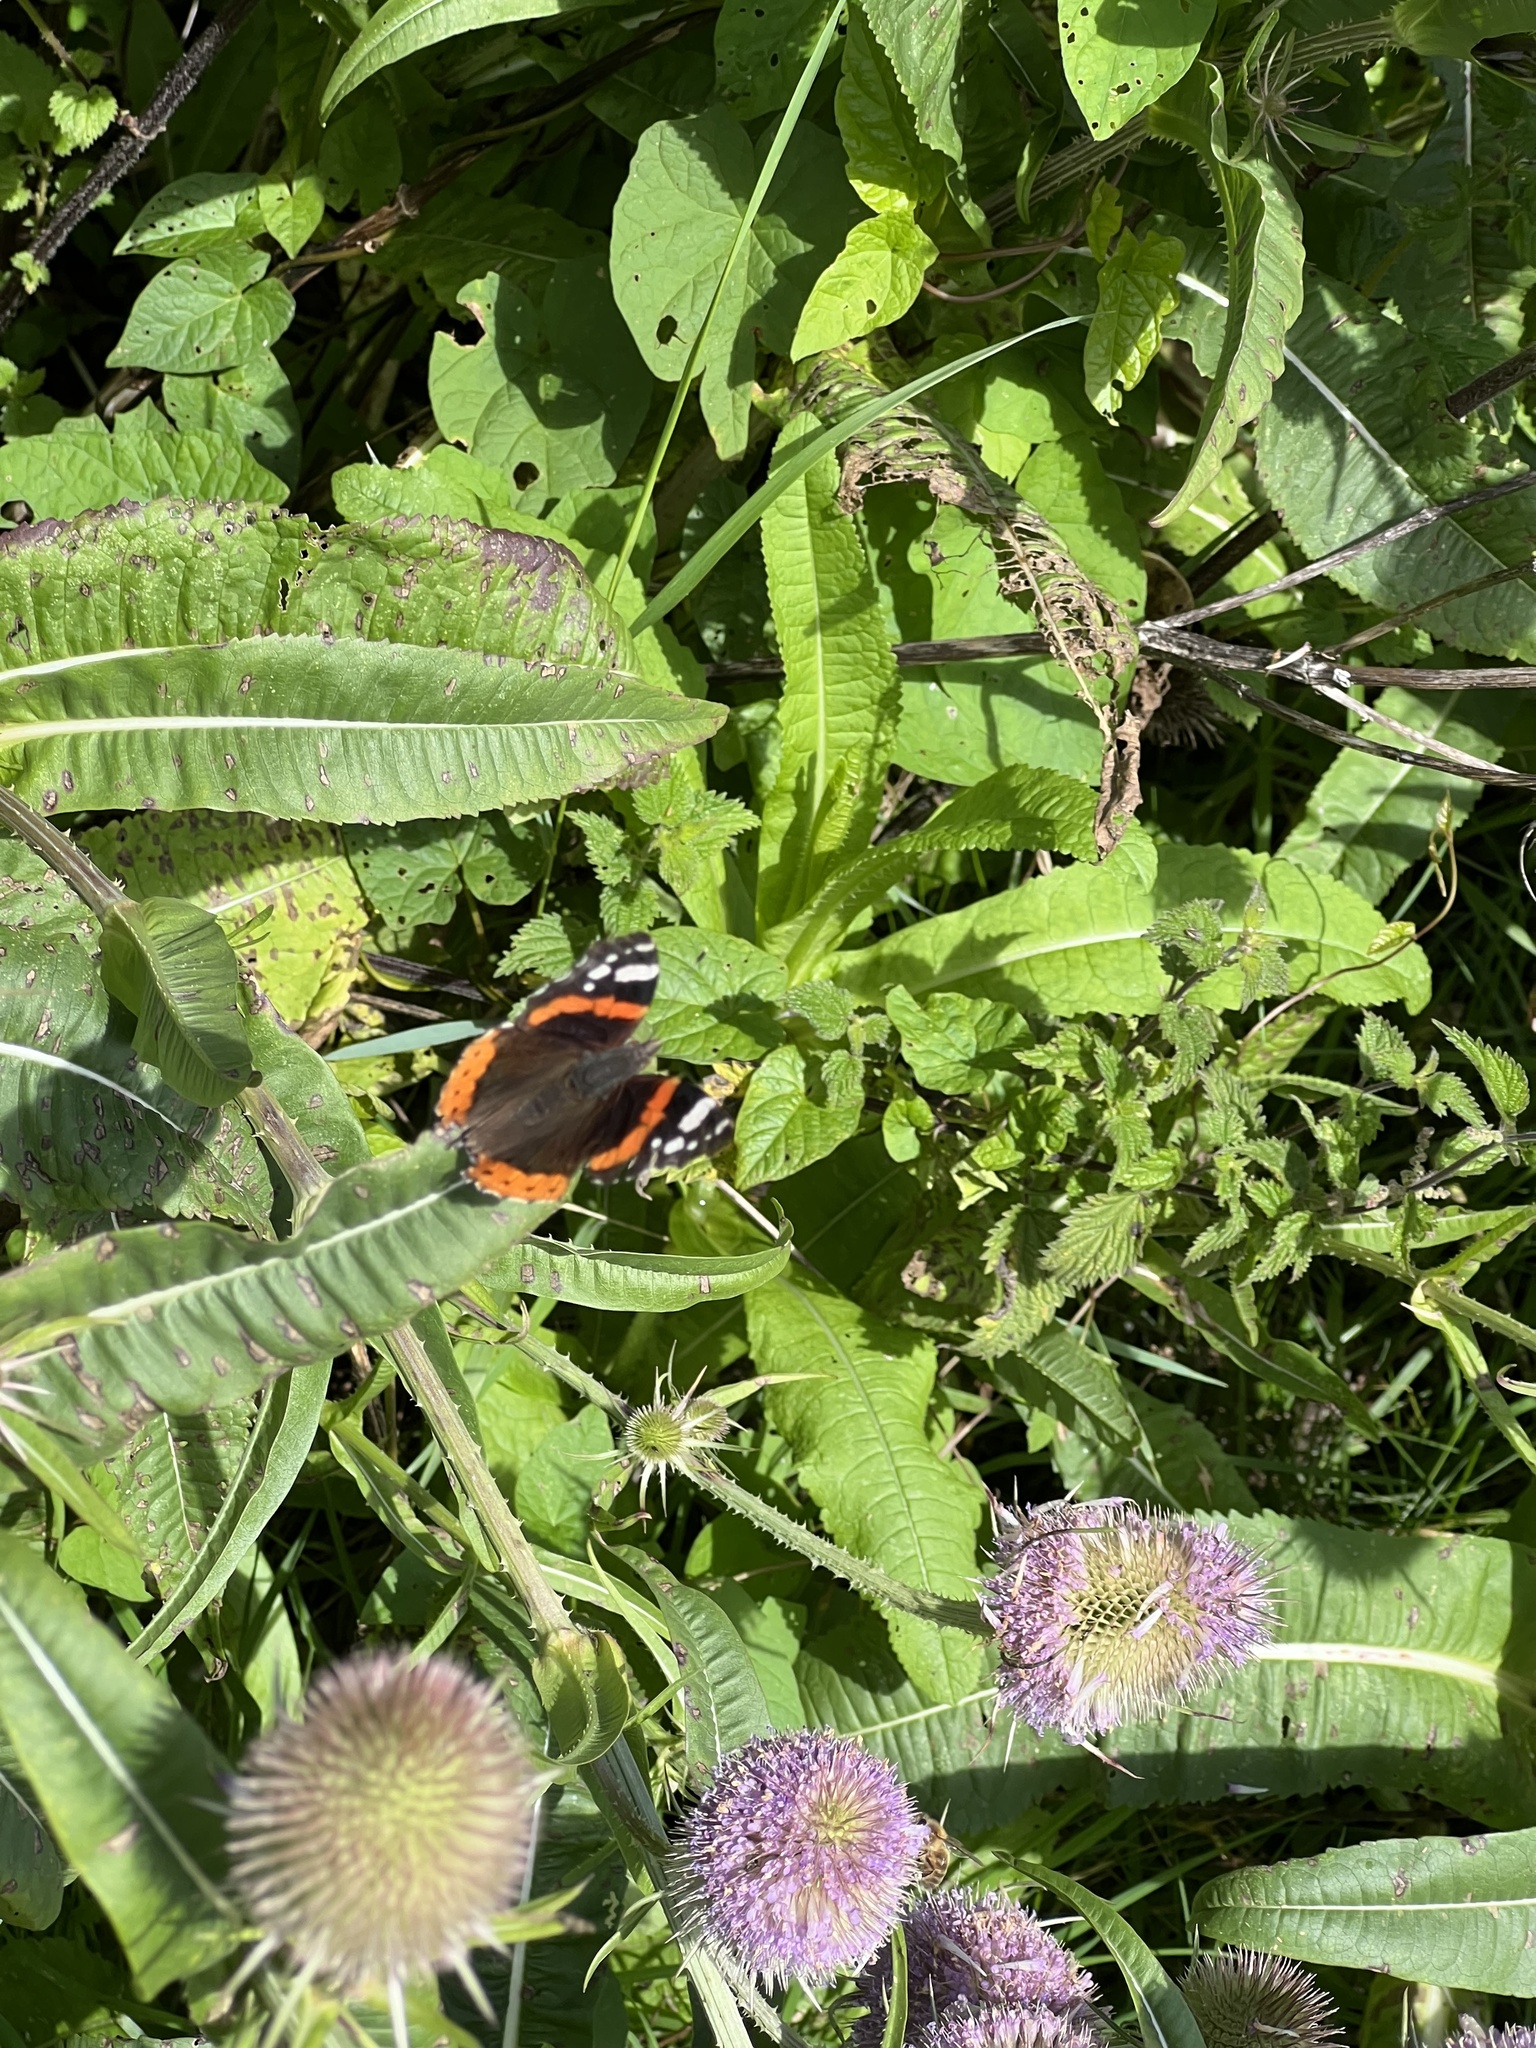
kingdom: Animalia
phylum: Arthropoda
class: Insecta
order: Lepidoptera
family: Nymphalidae
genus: Vanessa
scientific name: Vanessa atalanta
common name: Red admiral
